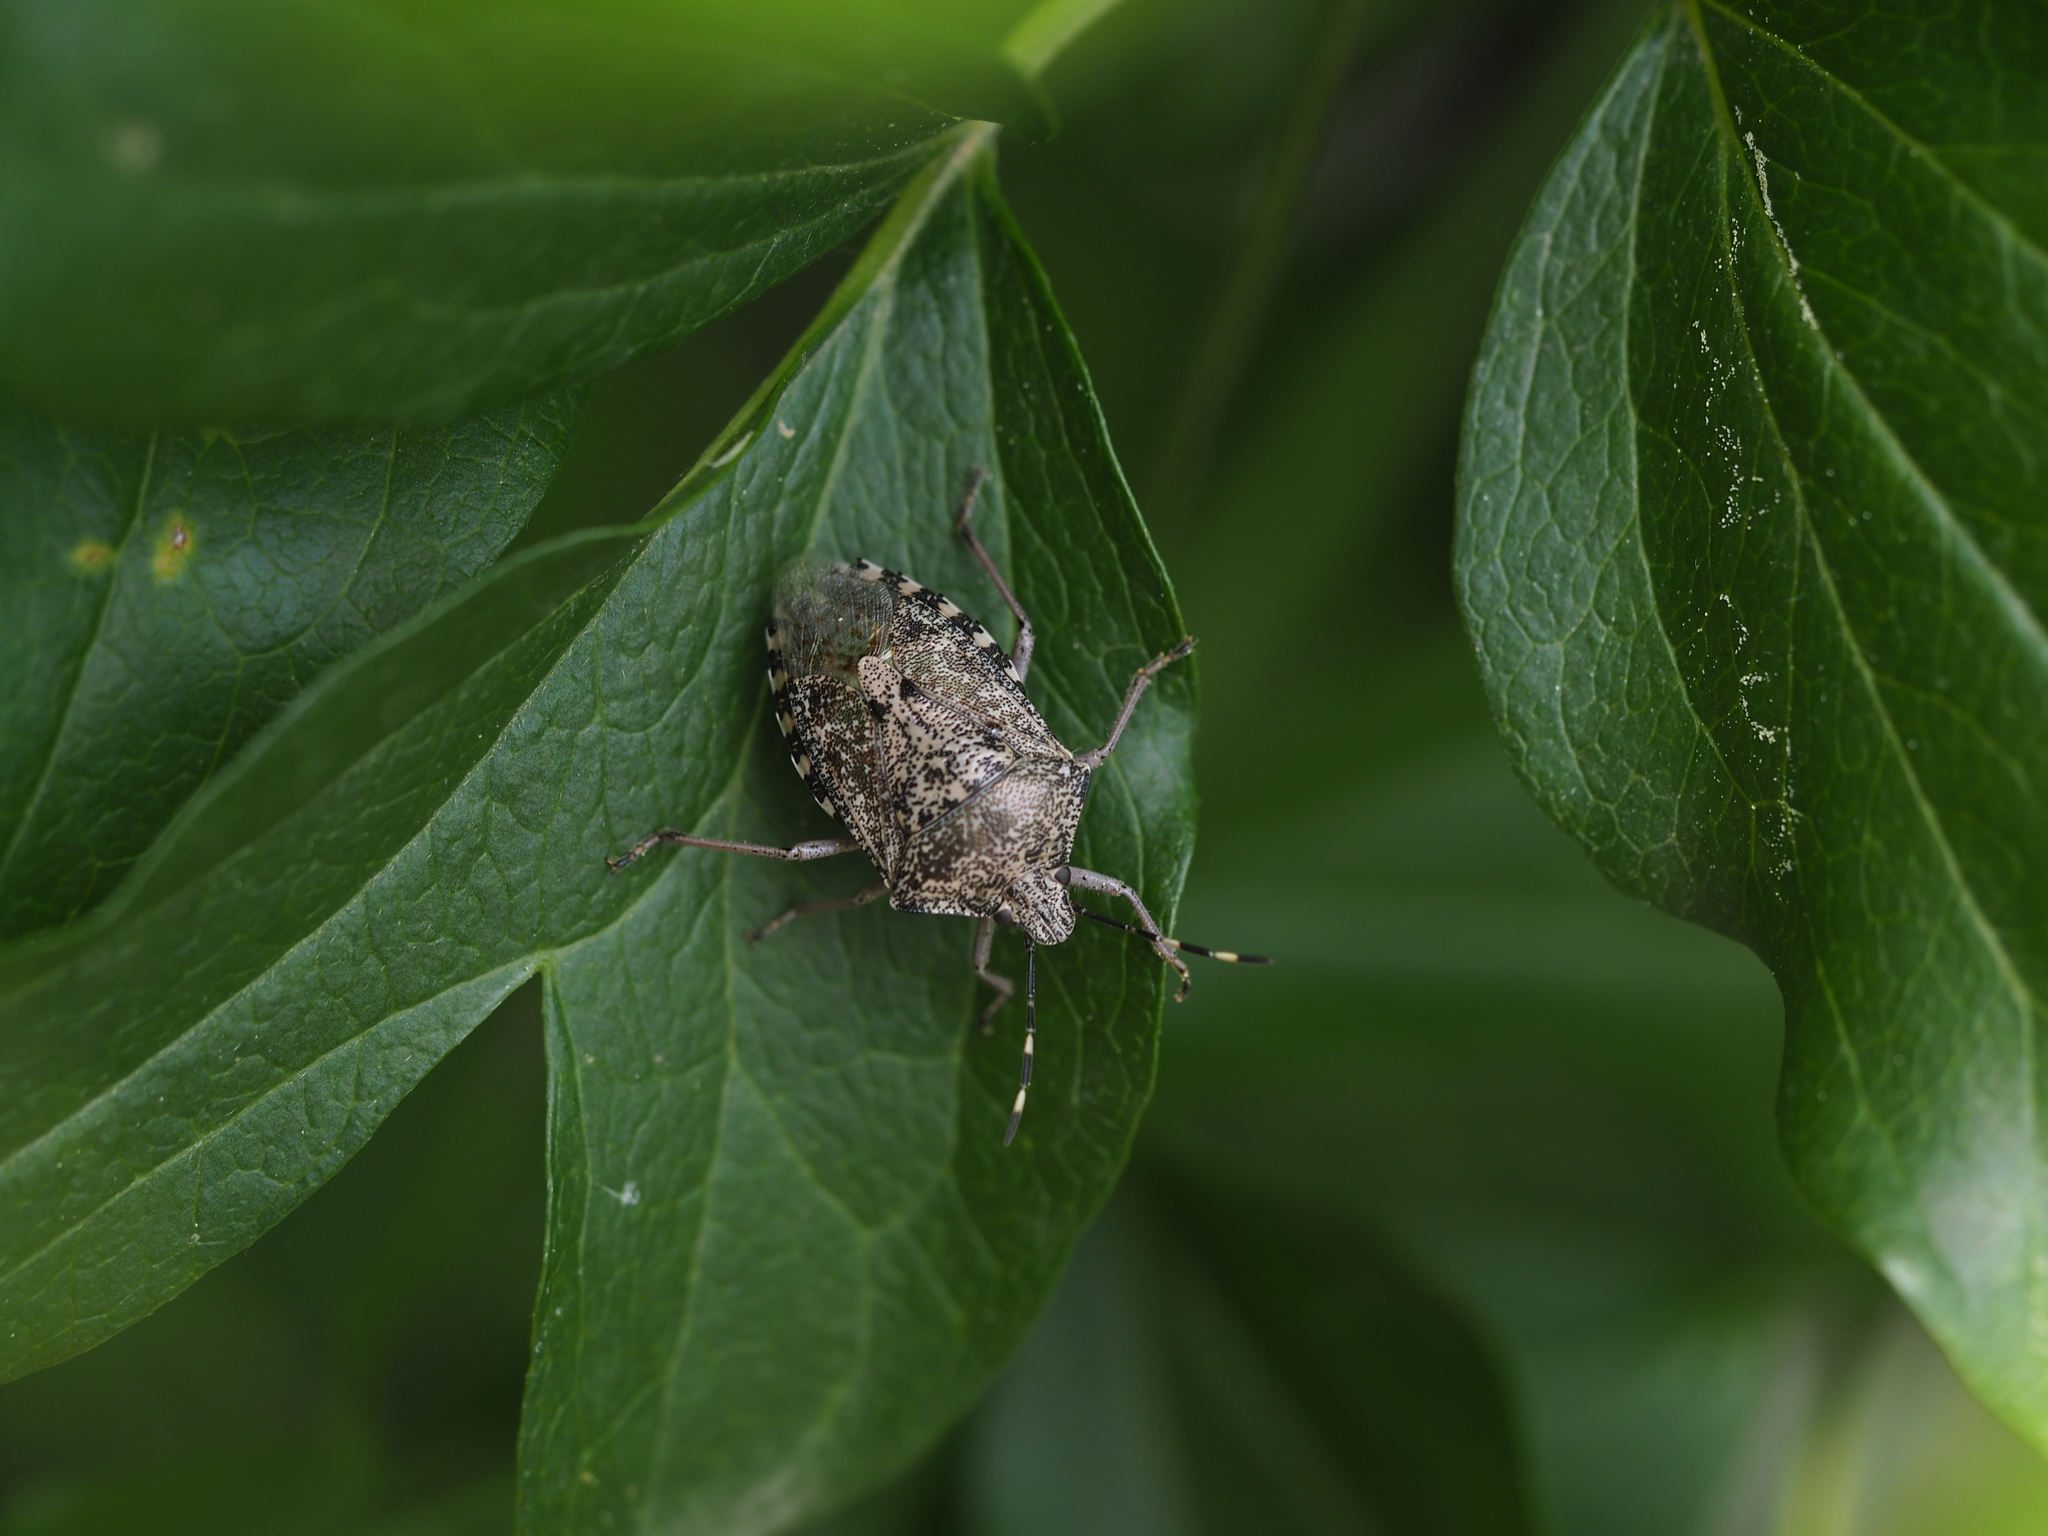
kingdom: Animalia
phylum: Arthropoda
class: Insecta
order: Hemiptera
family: Pentatomidae
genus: Rhaphigaster
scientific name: Rhaphigaster nebulosa
